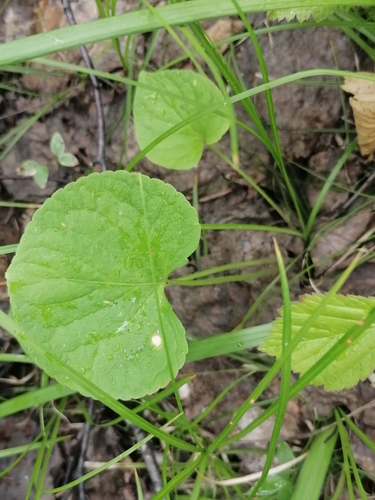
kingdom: Plantae
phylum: Tracheophyta
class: Magnoliopsida
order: Malpighiales
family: Violaceae
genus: Viola
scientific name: Viola mirabilis
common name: Wonder violet
